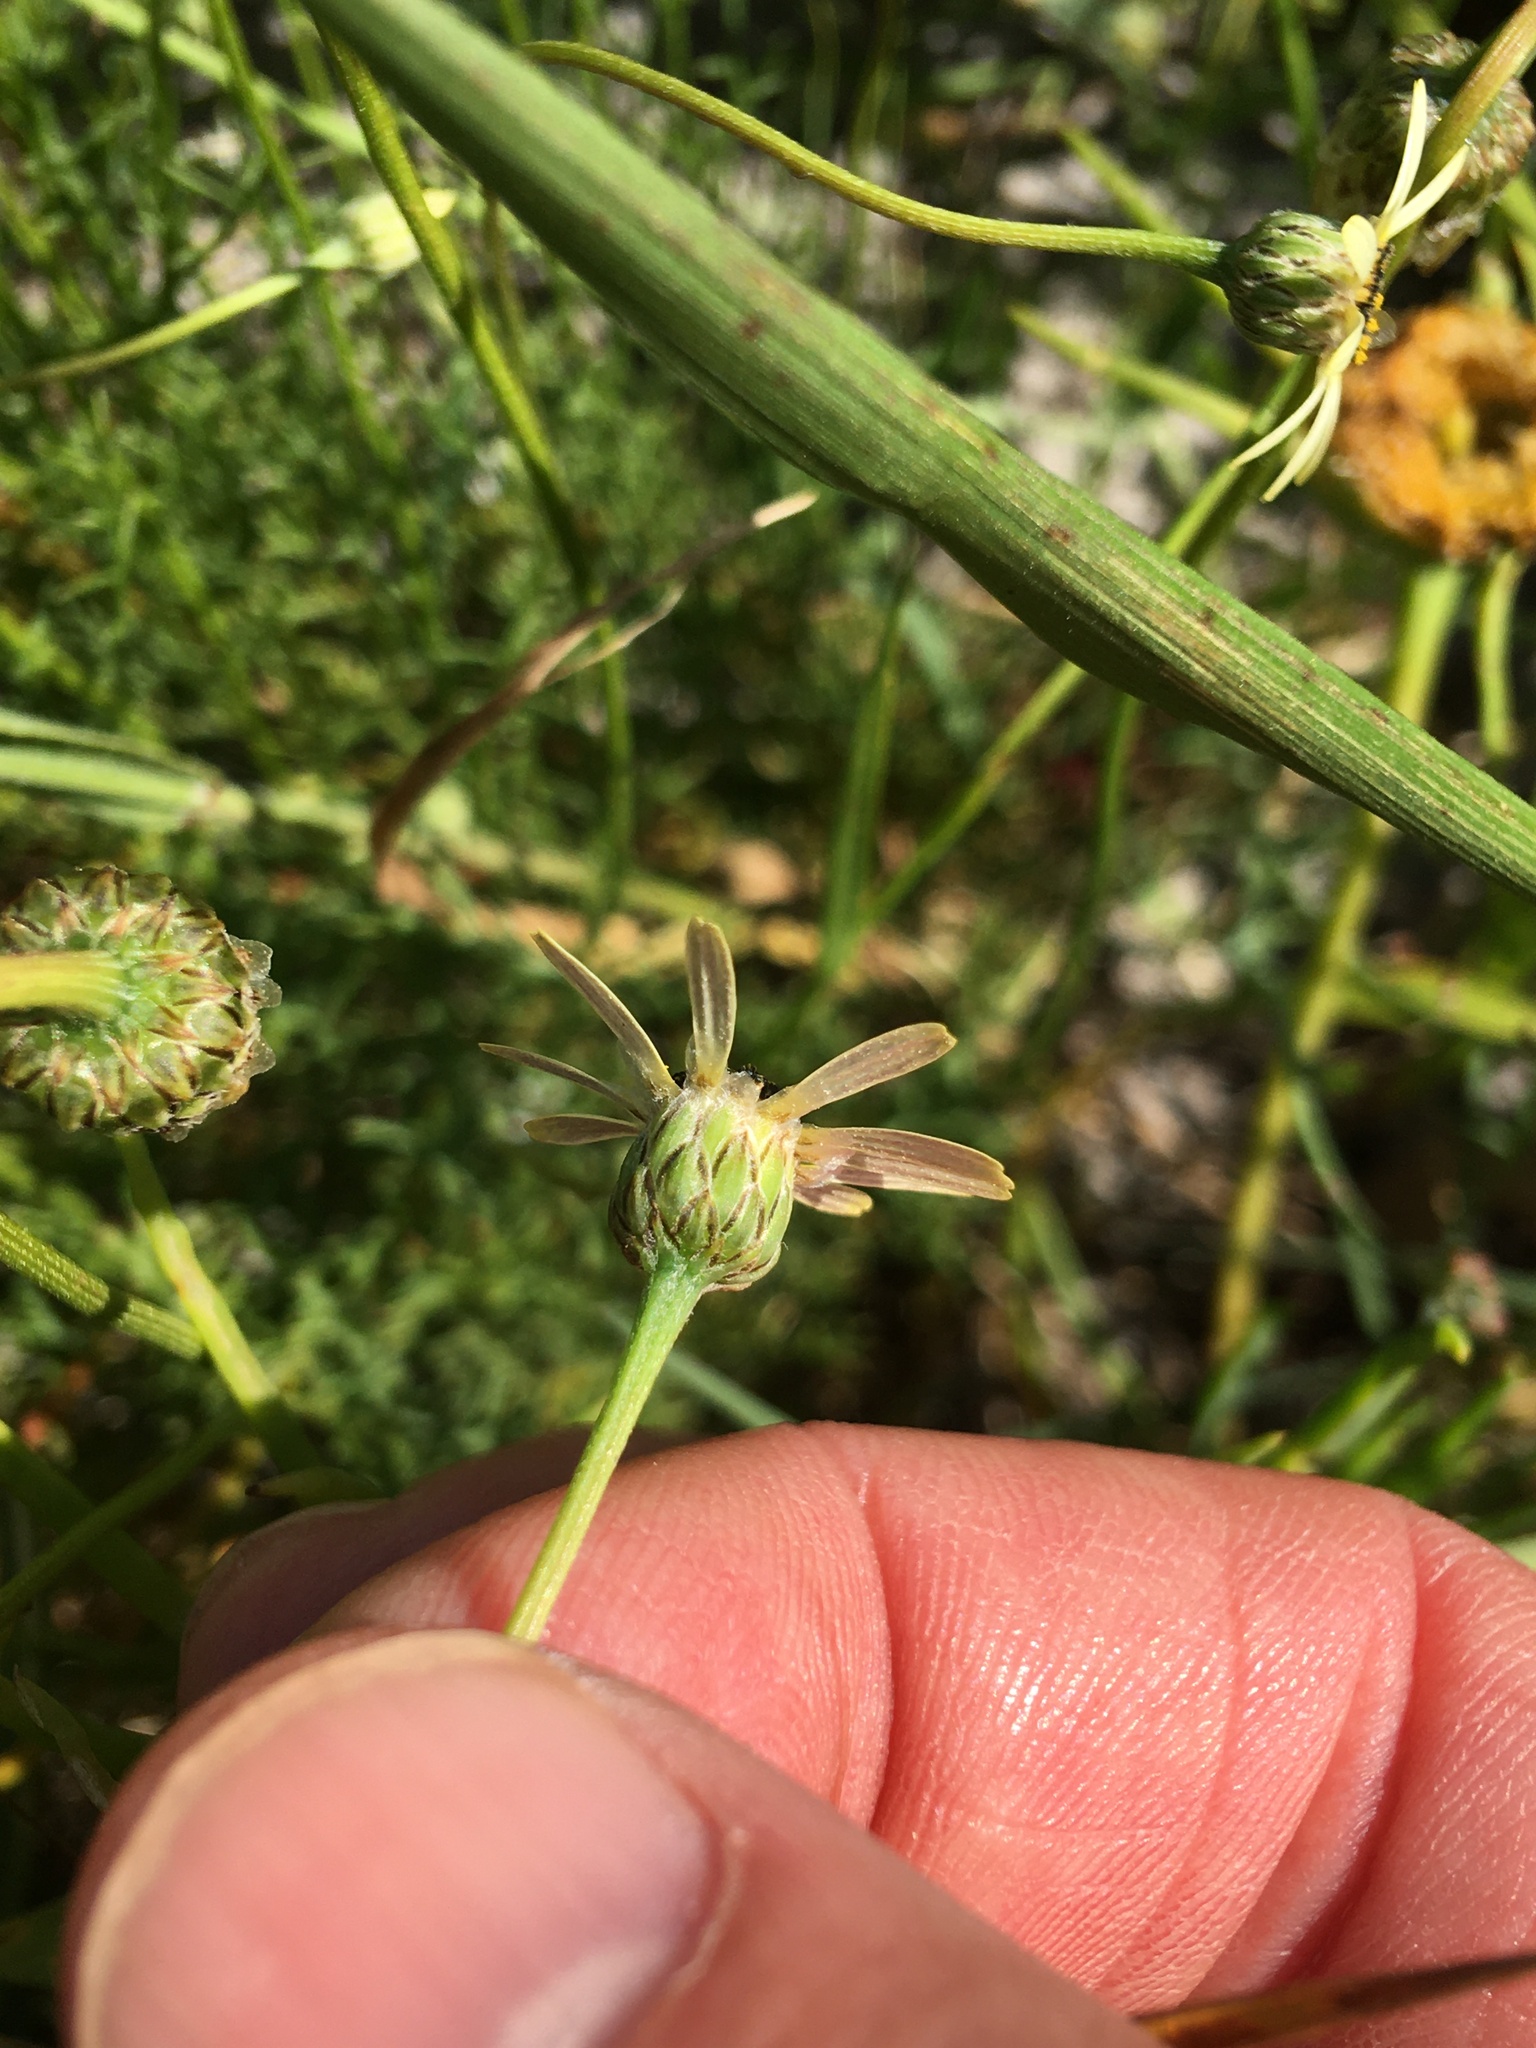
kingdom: Plantae
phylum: Tracheophyta
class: Magnoliopsida
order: Asterales
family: Asteraceae
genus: Ursinia
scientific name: Ursinia anthemoides
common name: Ursinia
